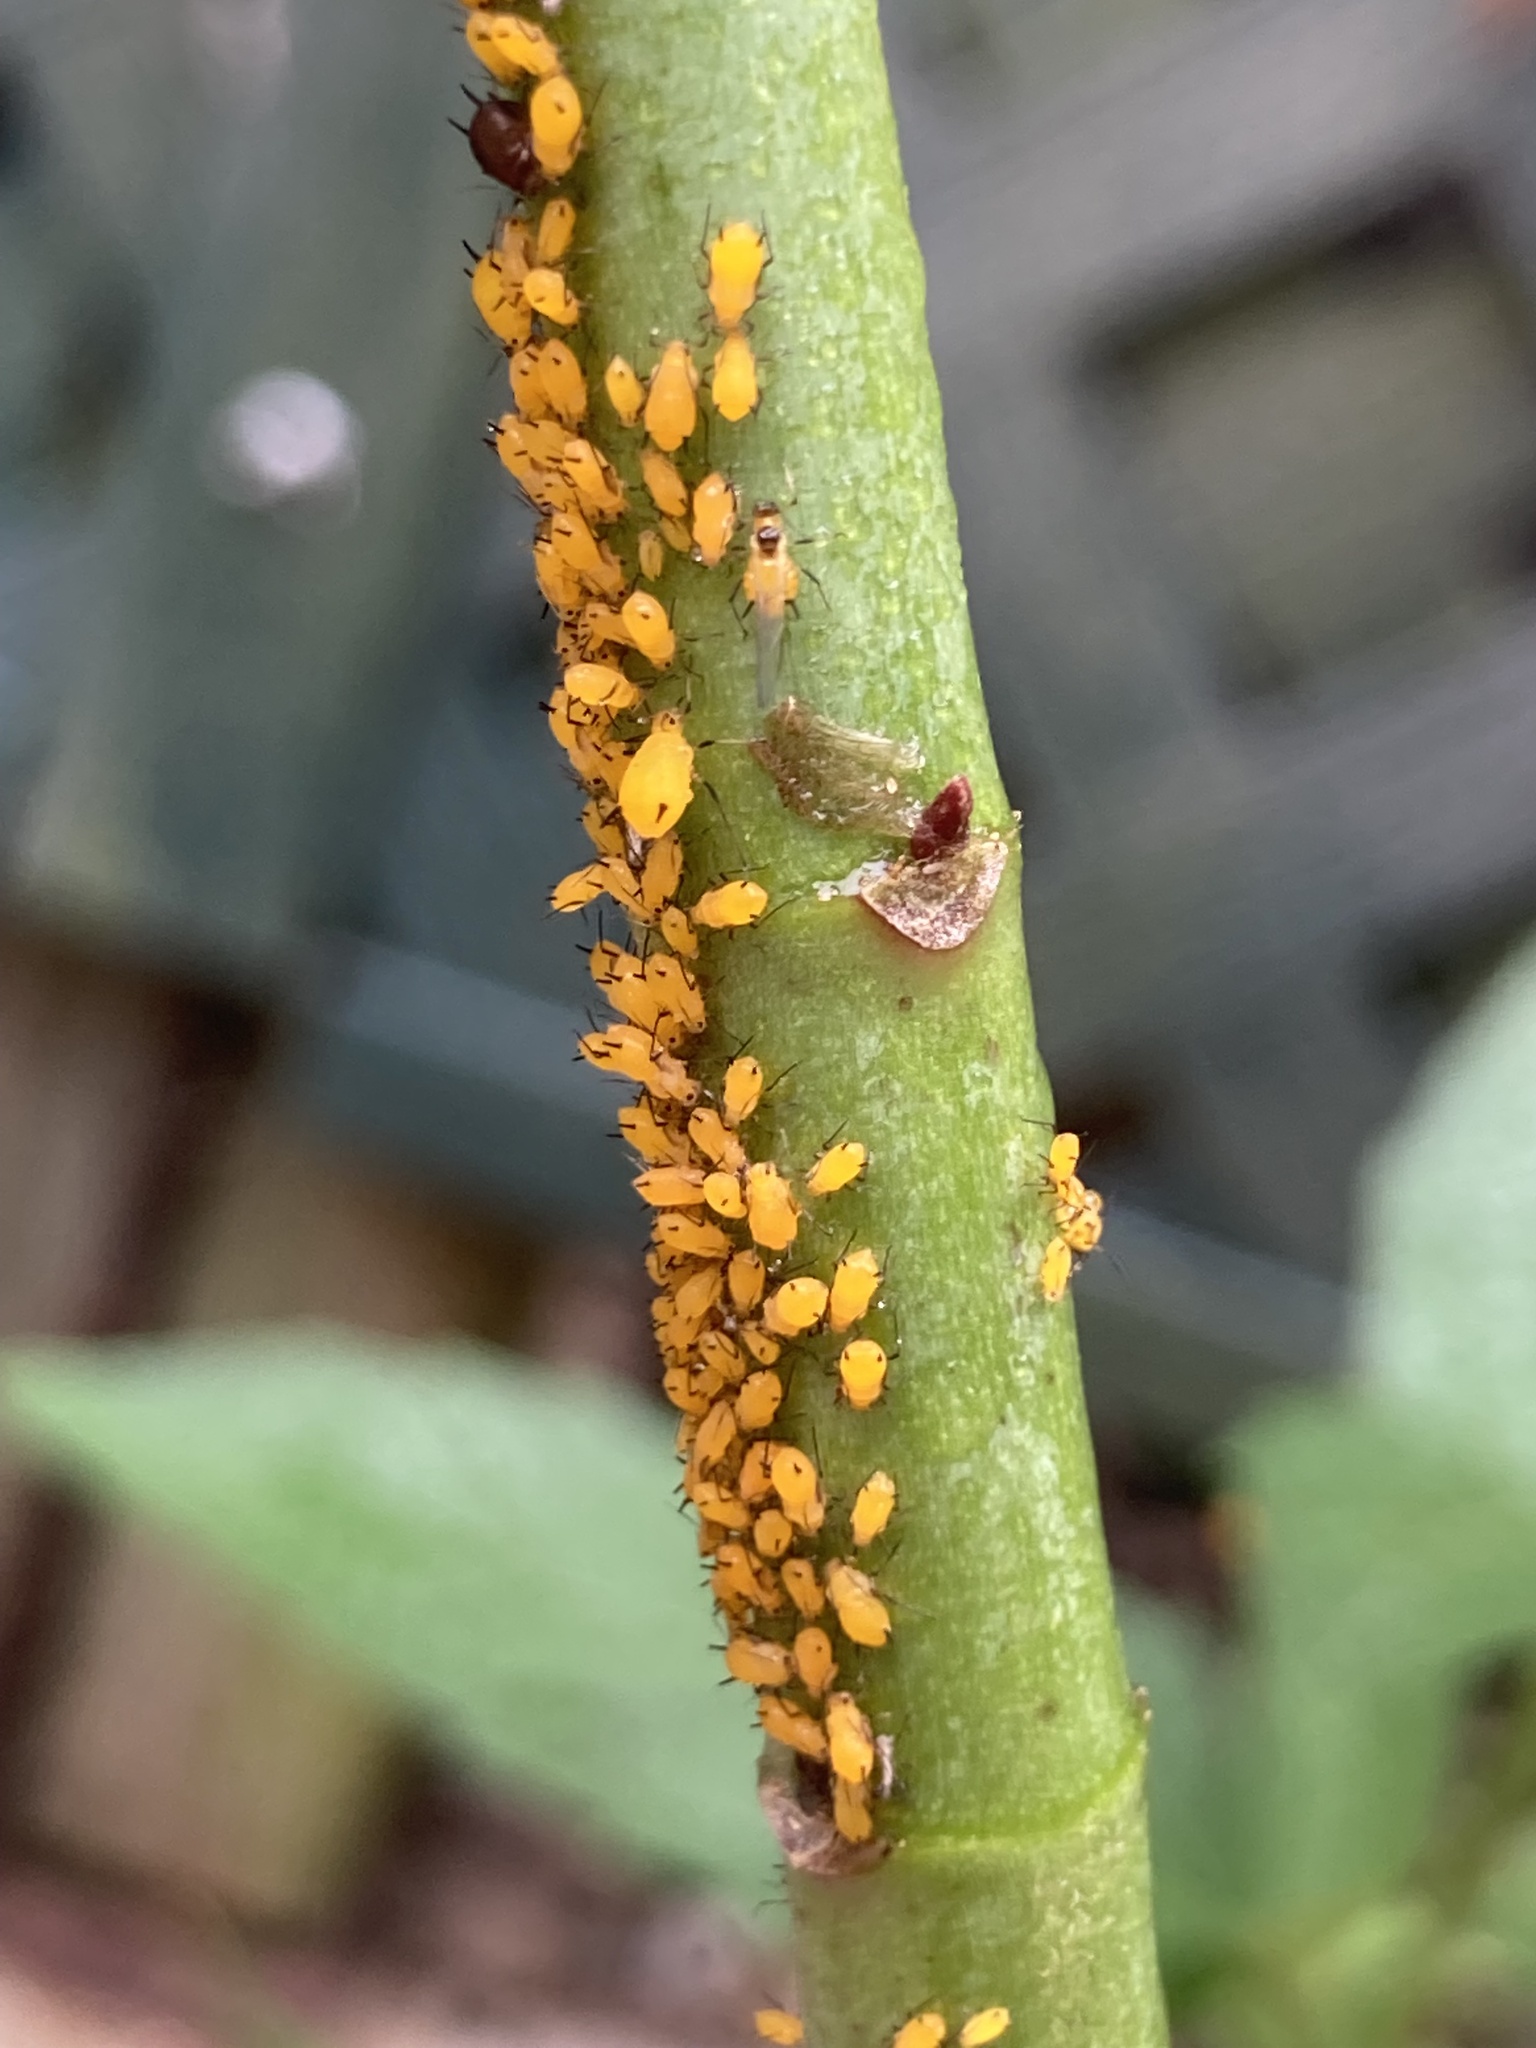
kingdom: Animalia
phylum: Arthropoda
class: Insecta
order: Hemiptera
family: Aphididae
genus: Aphis
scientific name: Aphis nerii
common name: Oleander aphid
